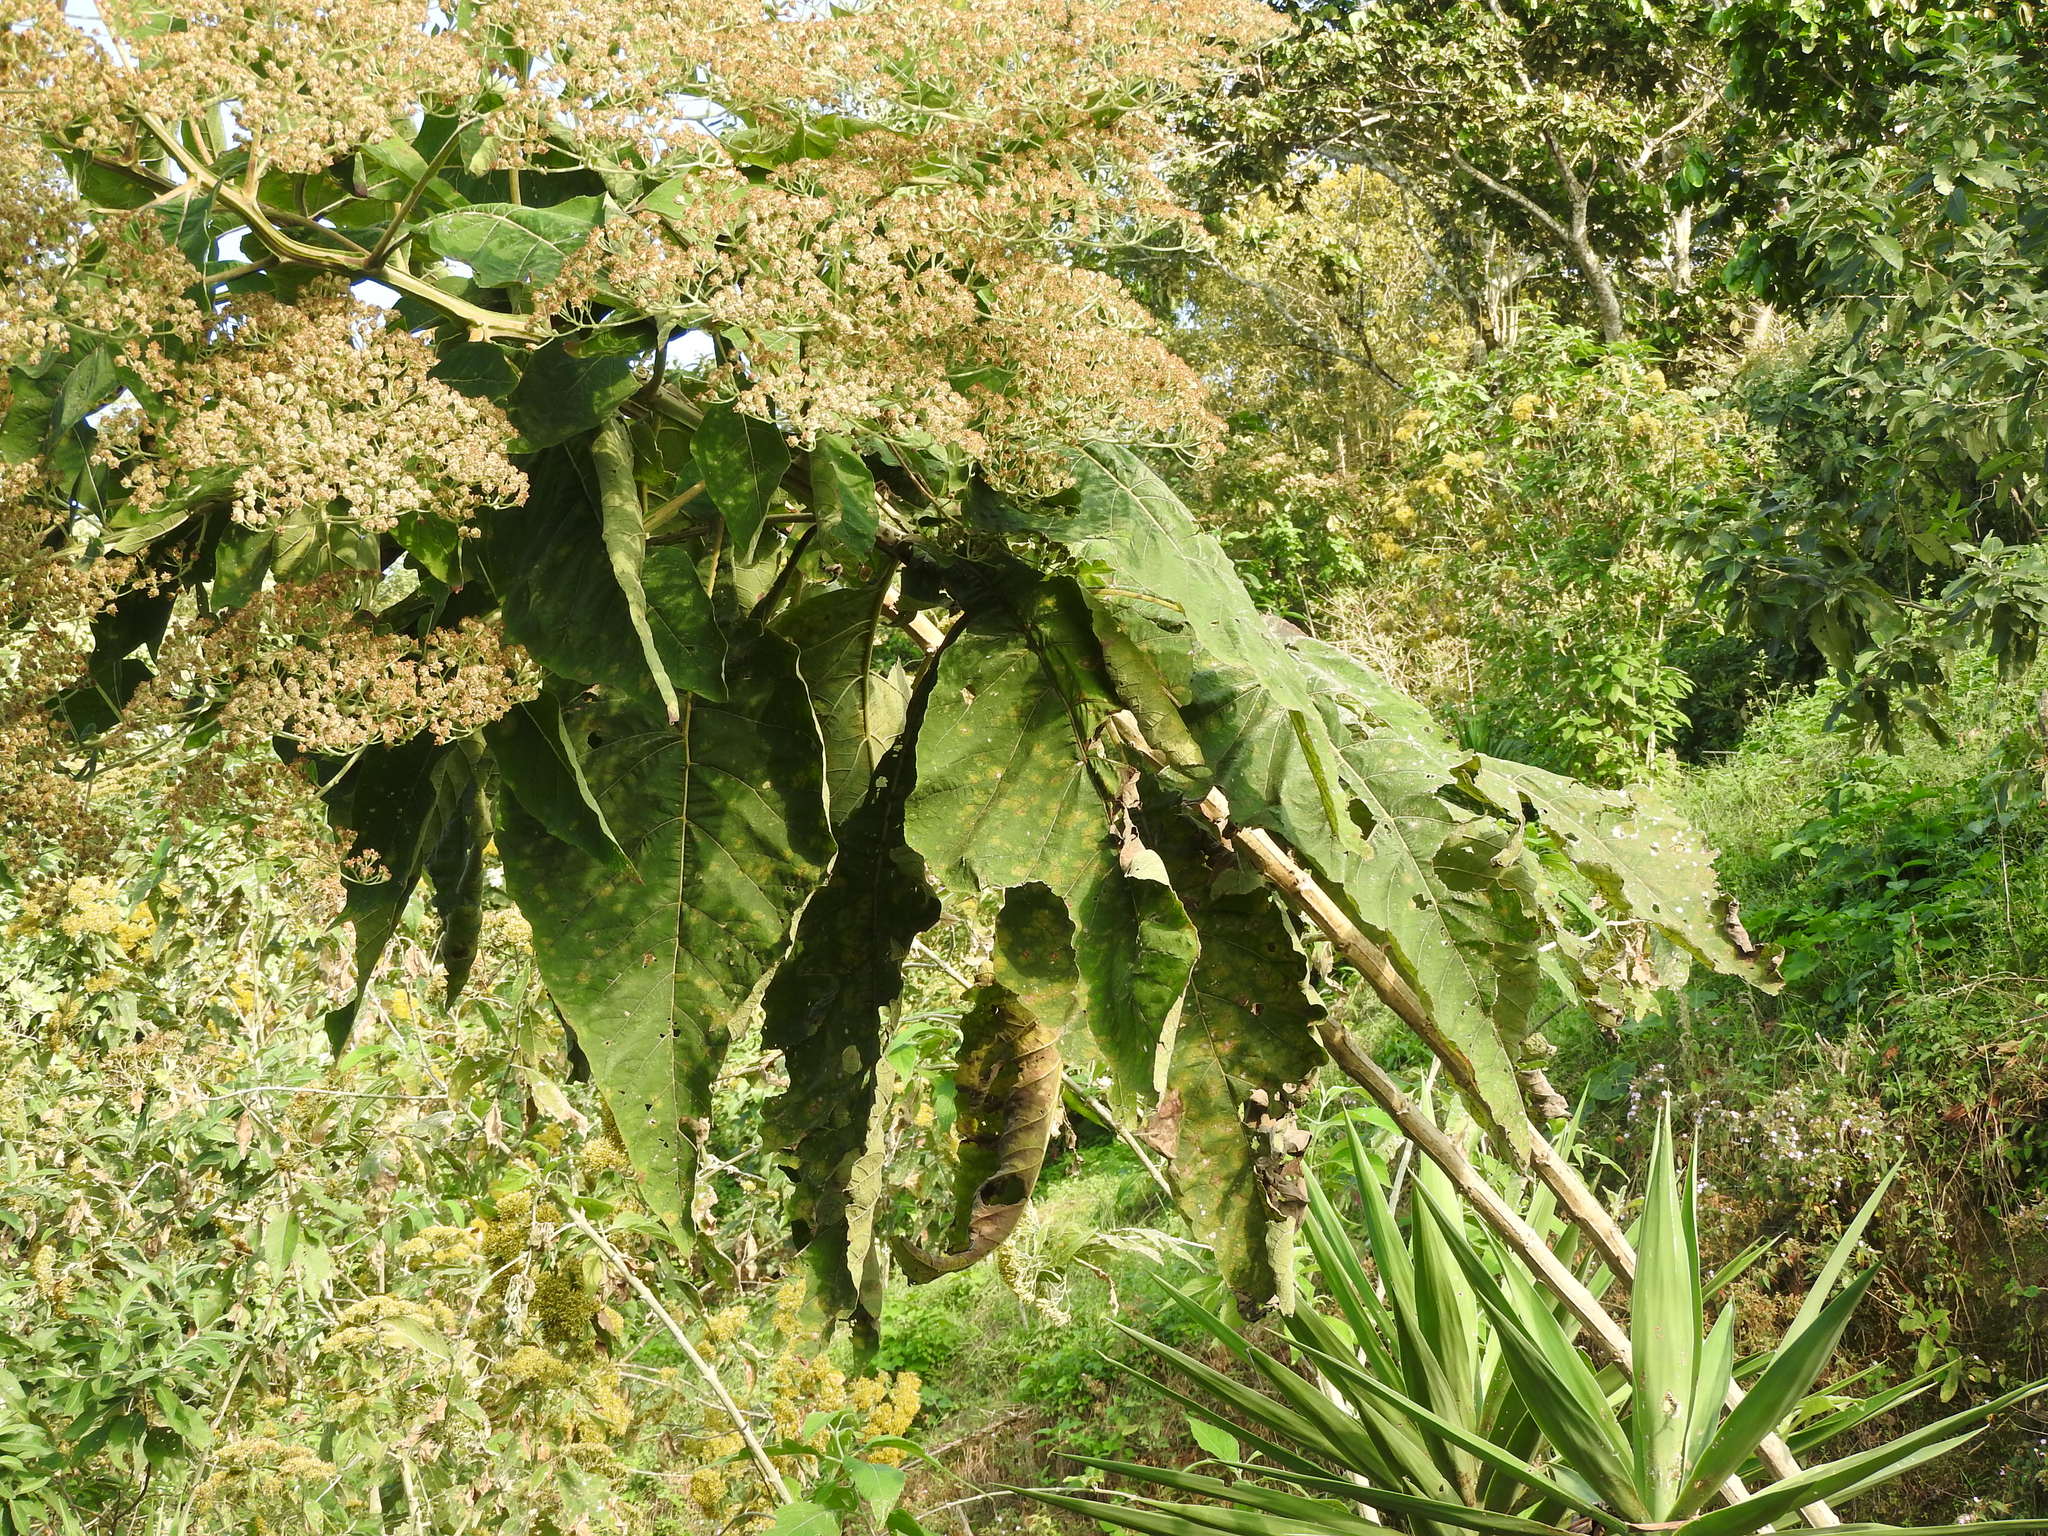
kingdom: Plantae
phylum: Tracheophyta
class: Magnoliopsida
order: Asterales
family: Asteraceae
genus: Critonia
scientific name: Critonia morifolia
